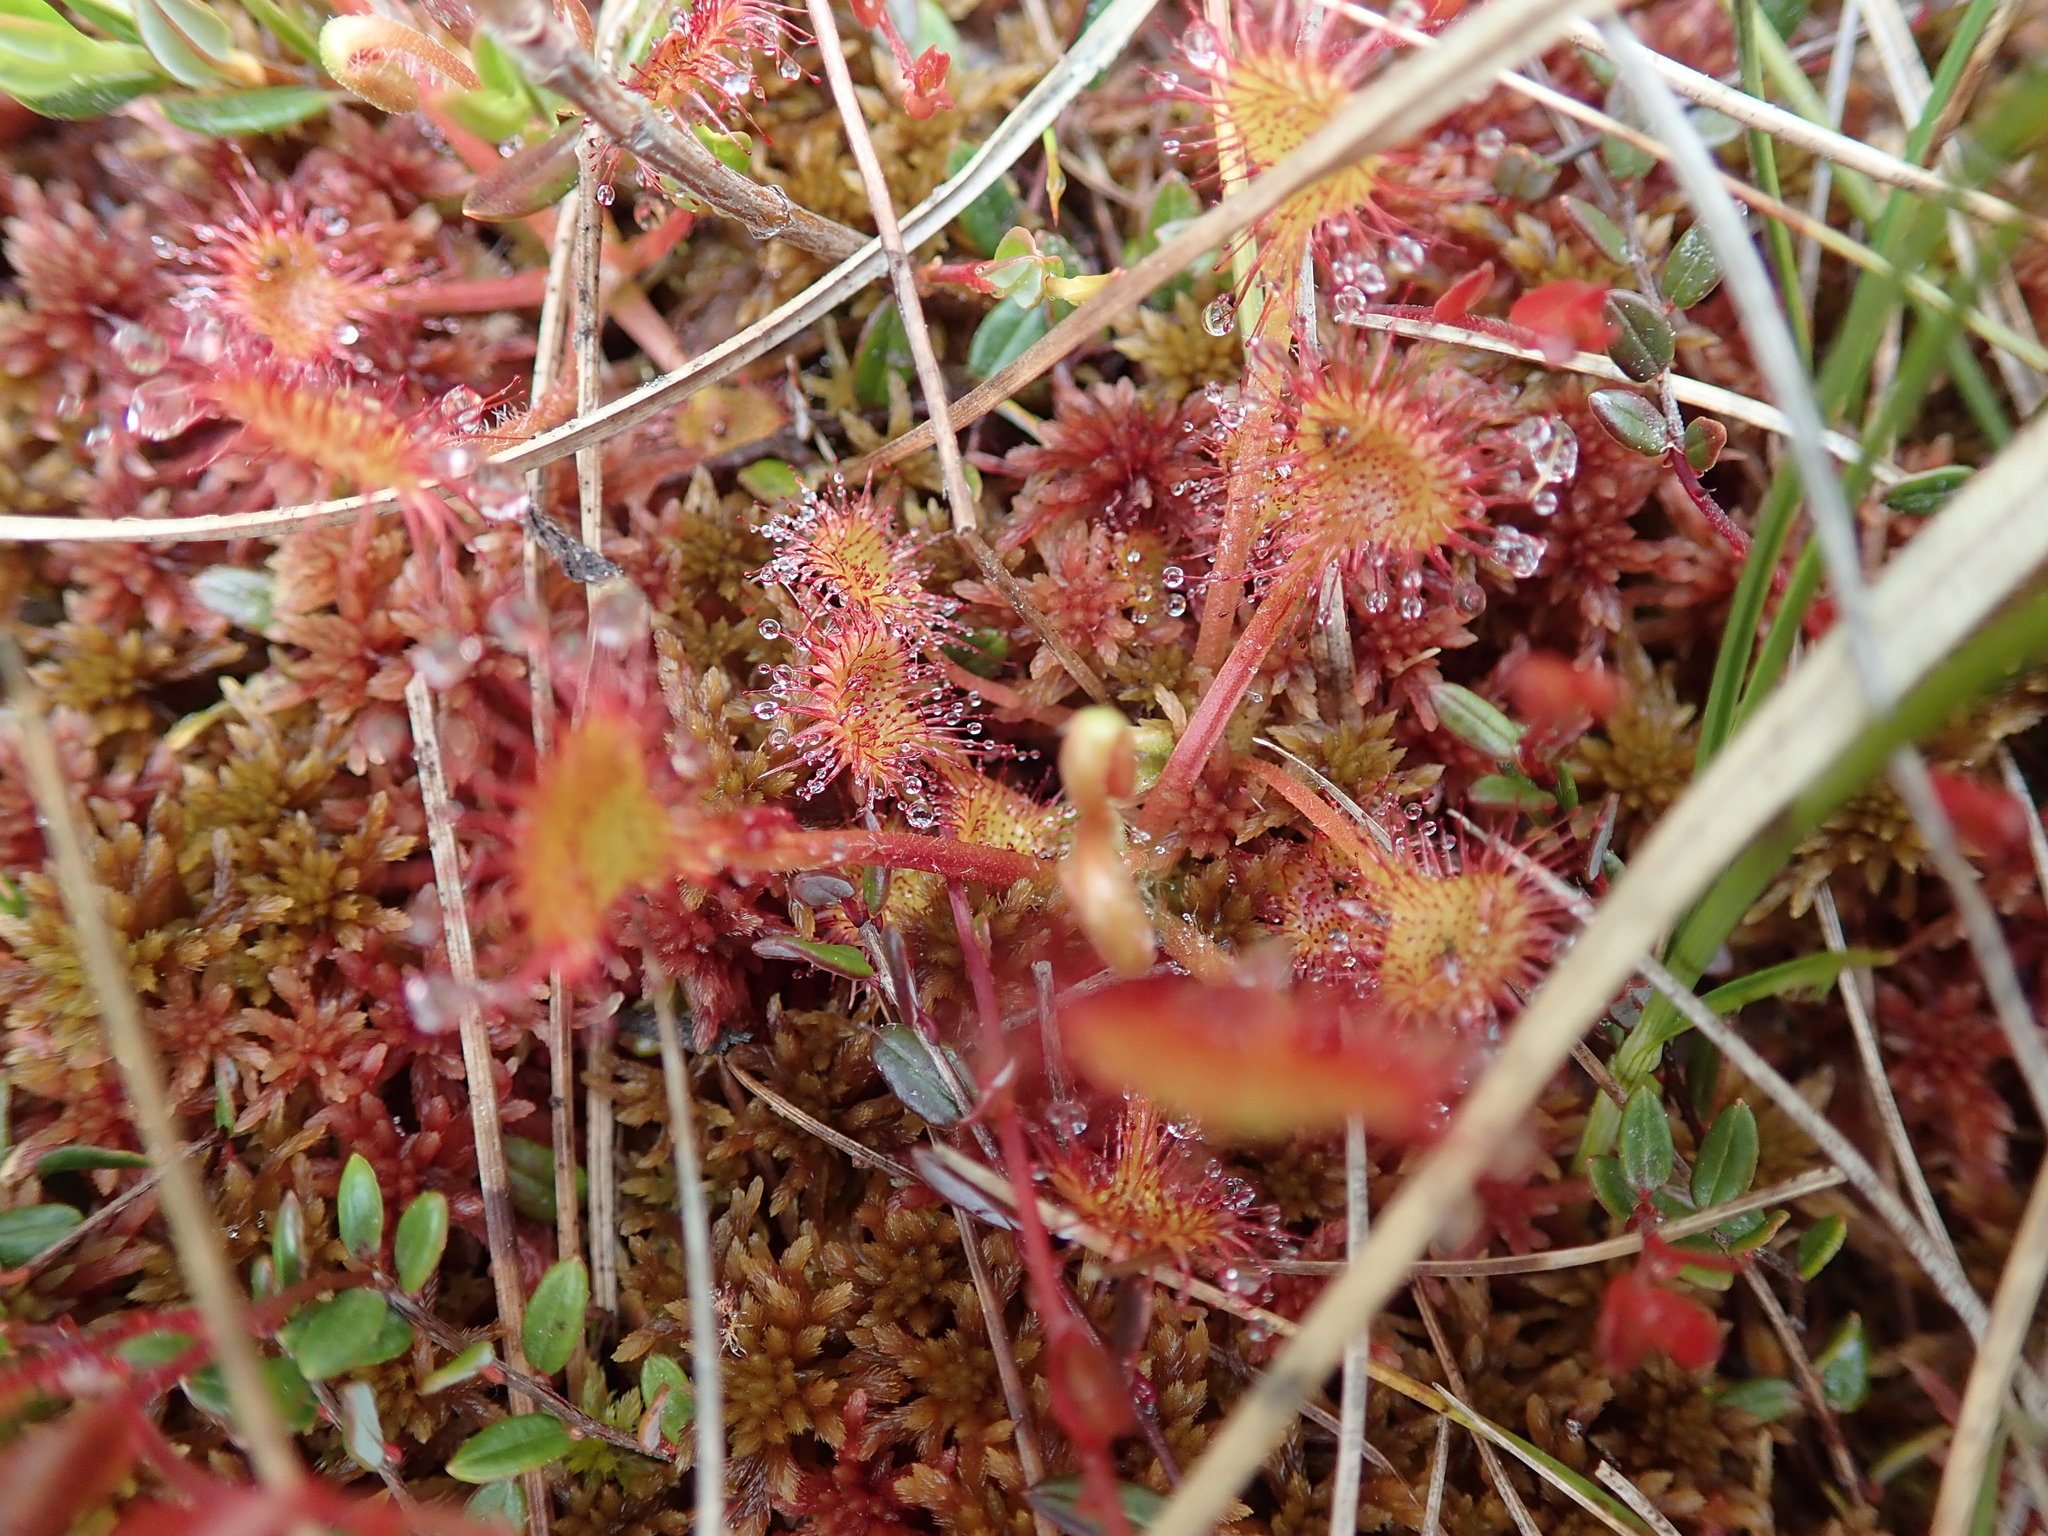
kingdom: Plantae
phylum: Tracheophyta
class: Magnoliopsida
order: Caryophyllales
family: Droseraceae
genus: Drosera
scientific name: Drosera rotundifolia
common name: Round-leaved sundew
